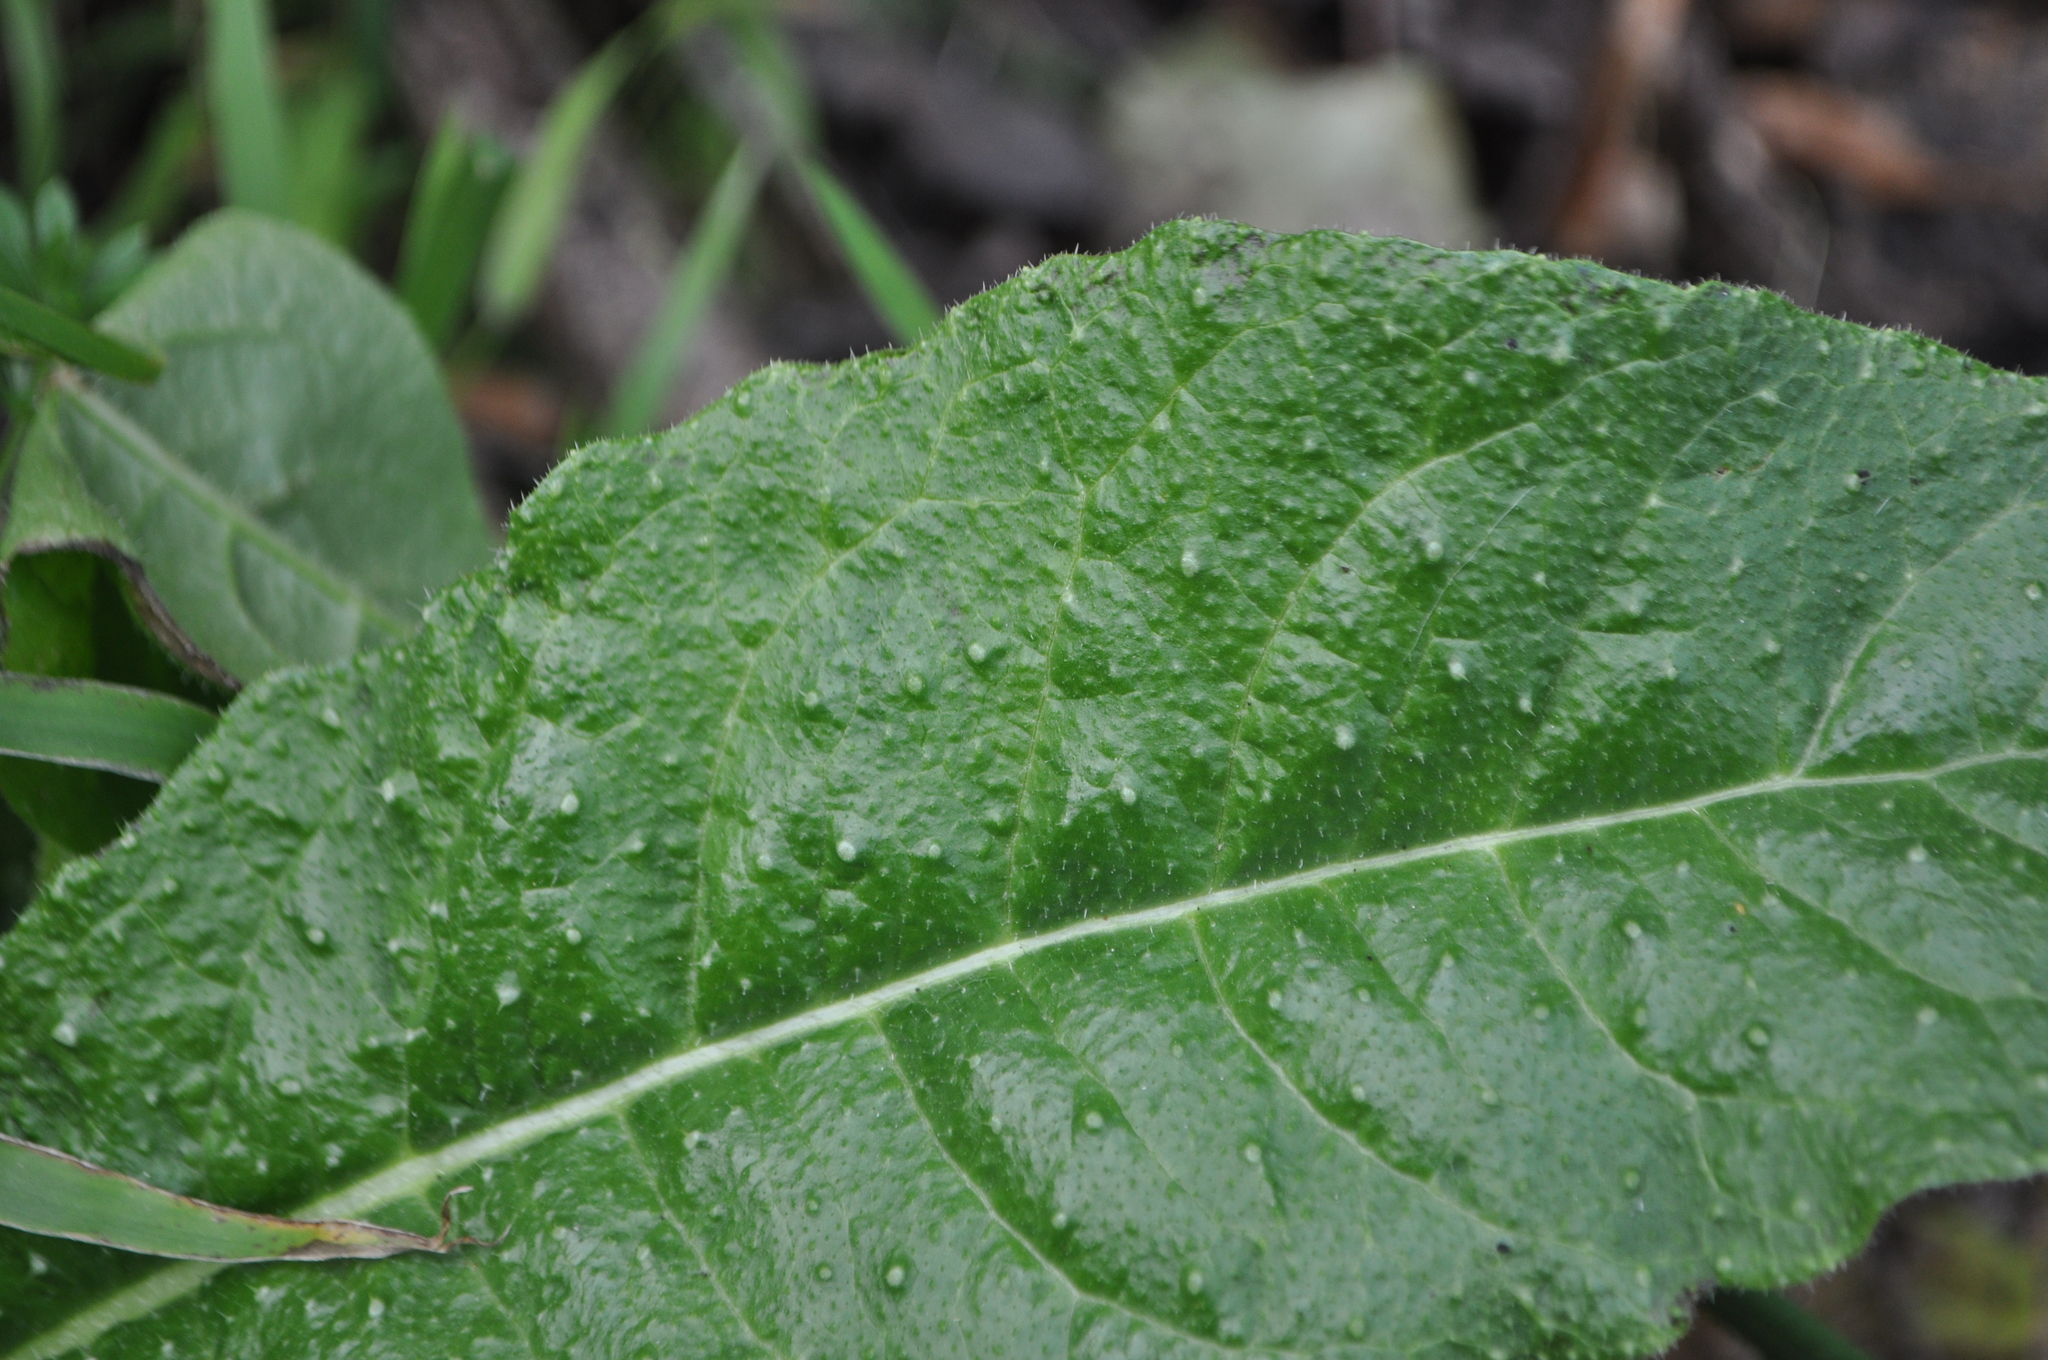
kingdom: Plantae
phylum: Tracheophyta
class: Magnoliopsida
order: Asterales
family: Asteraceae
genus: Helminthotheca
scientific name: Helminthotheca echioides
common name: Ox-tongue
